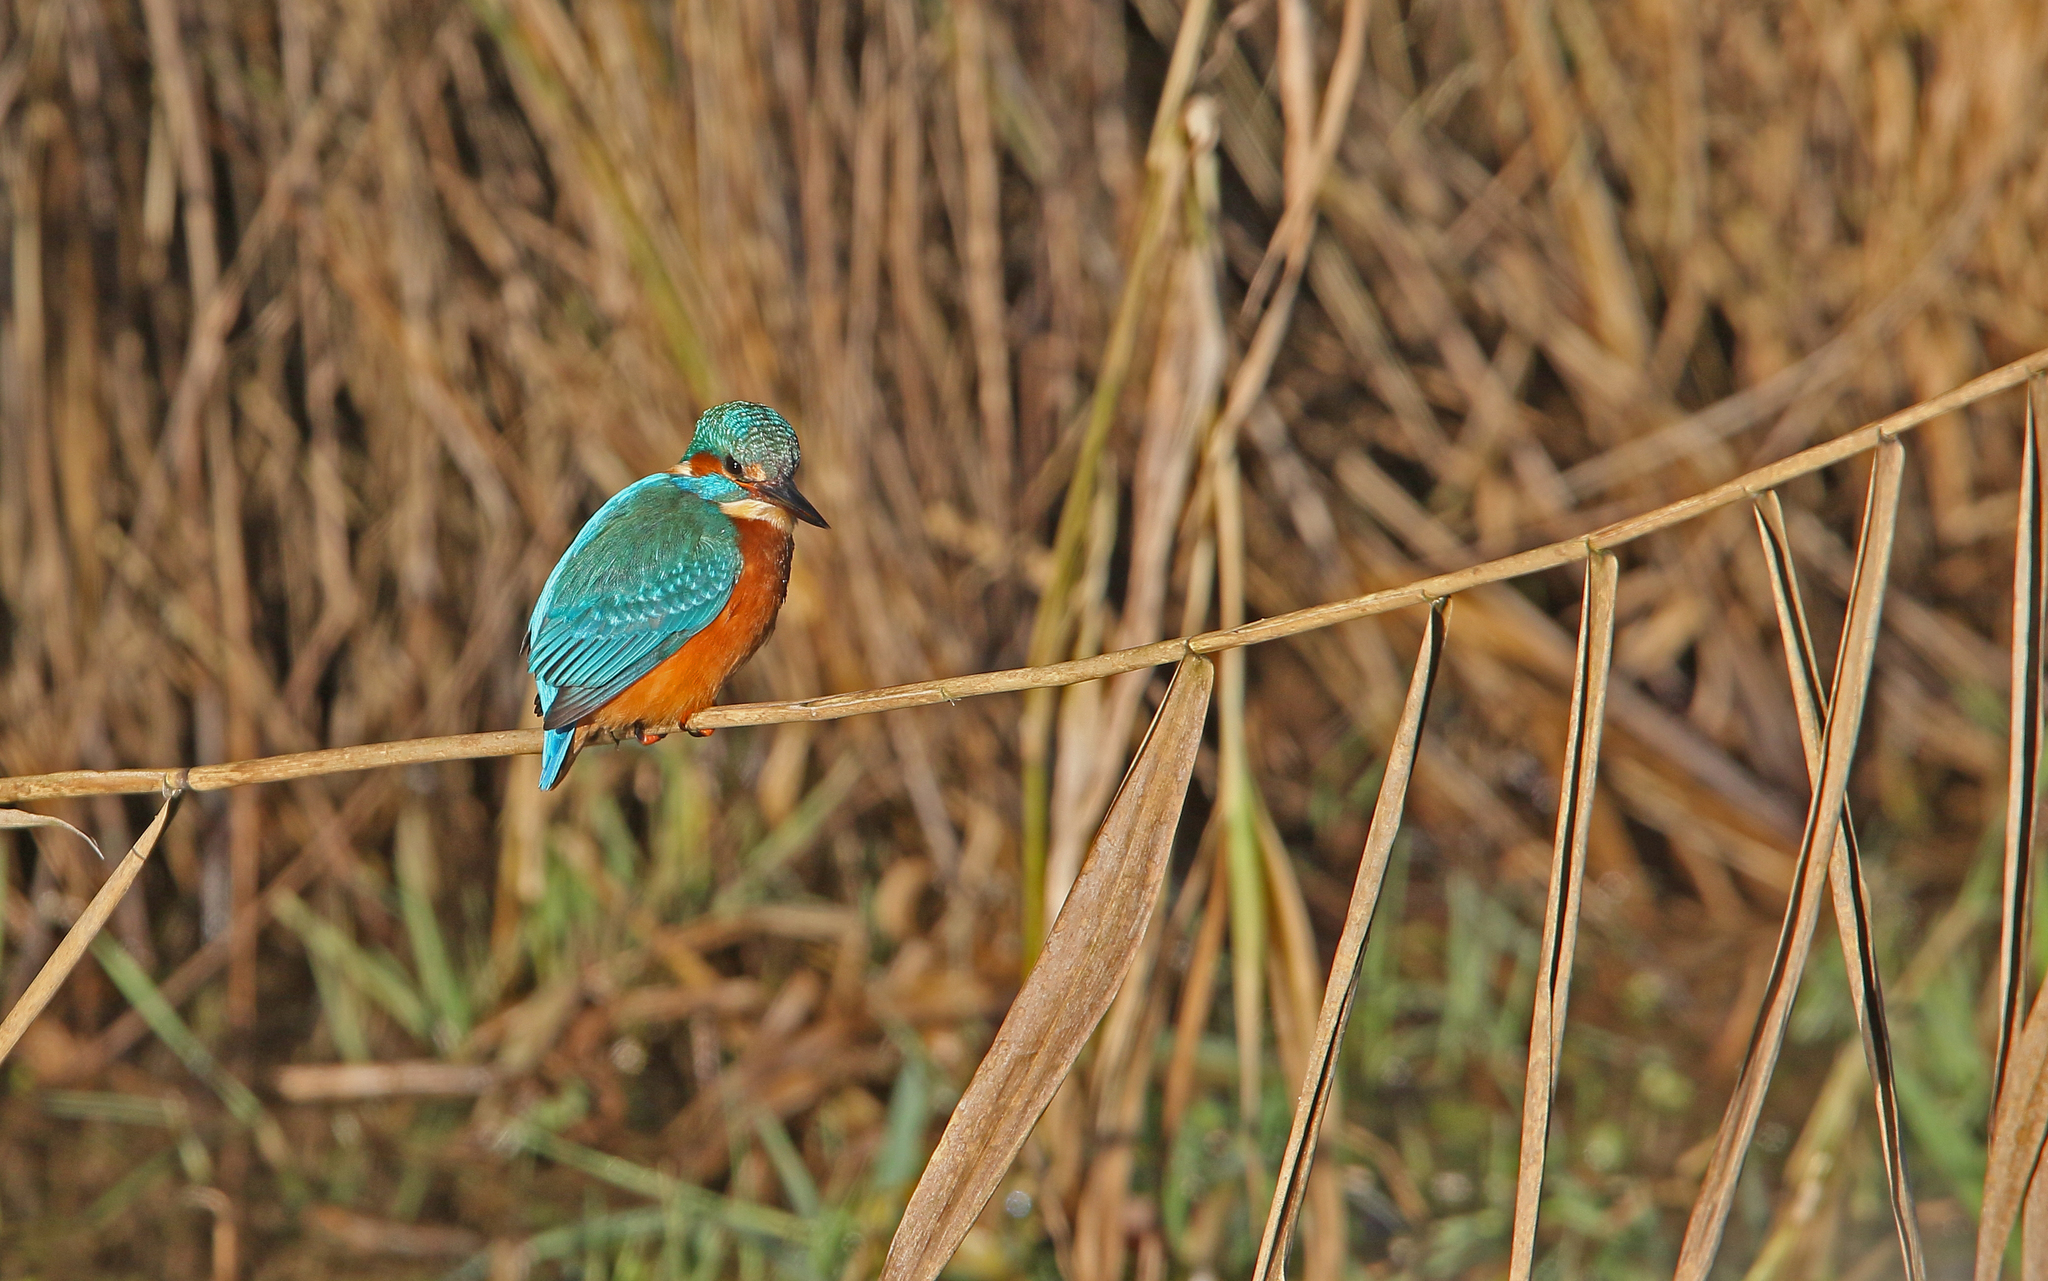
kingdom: Animalia
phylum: Chordata
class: Aves
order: Coraciiformes
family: Alcedinidae
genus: Alcedo
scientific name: Alcedo atthis
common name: Common kingfisher
